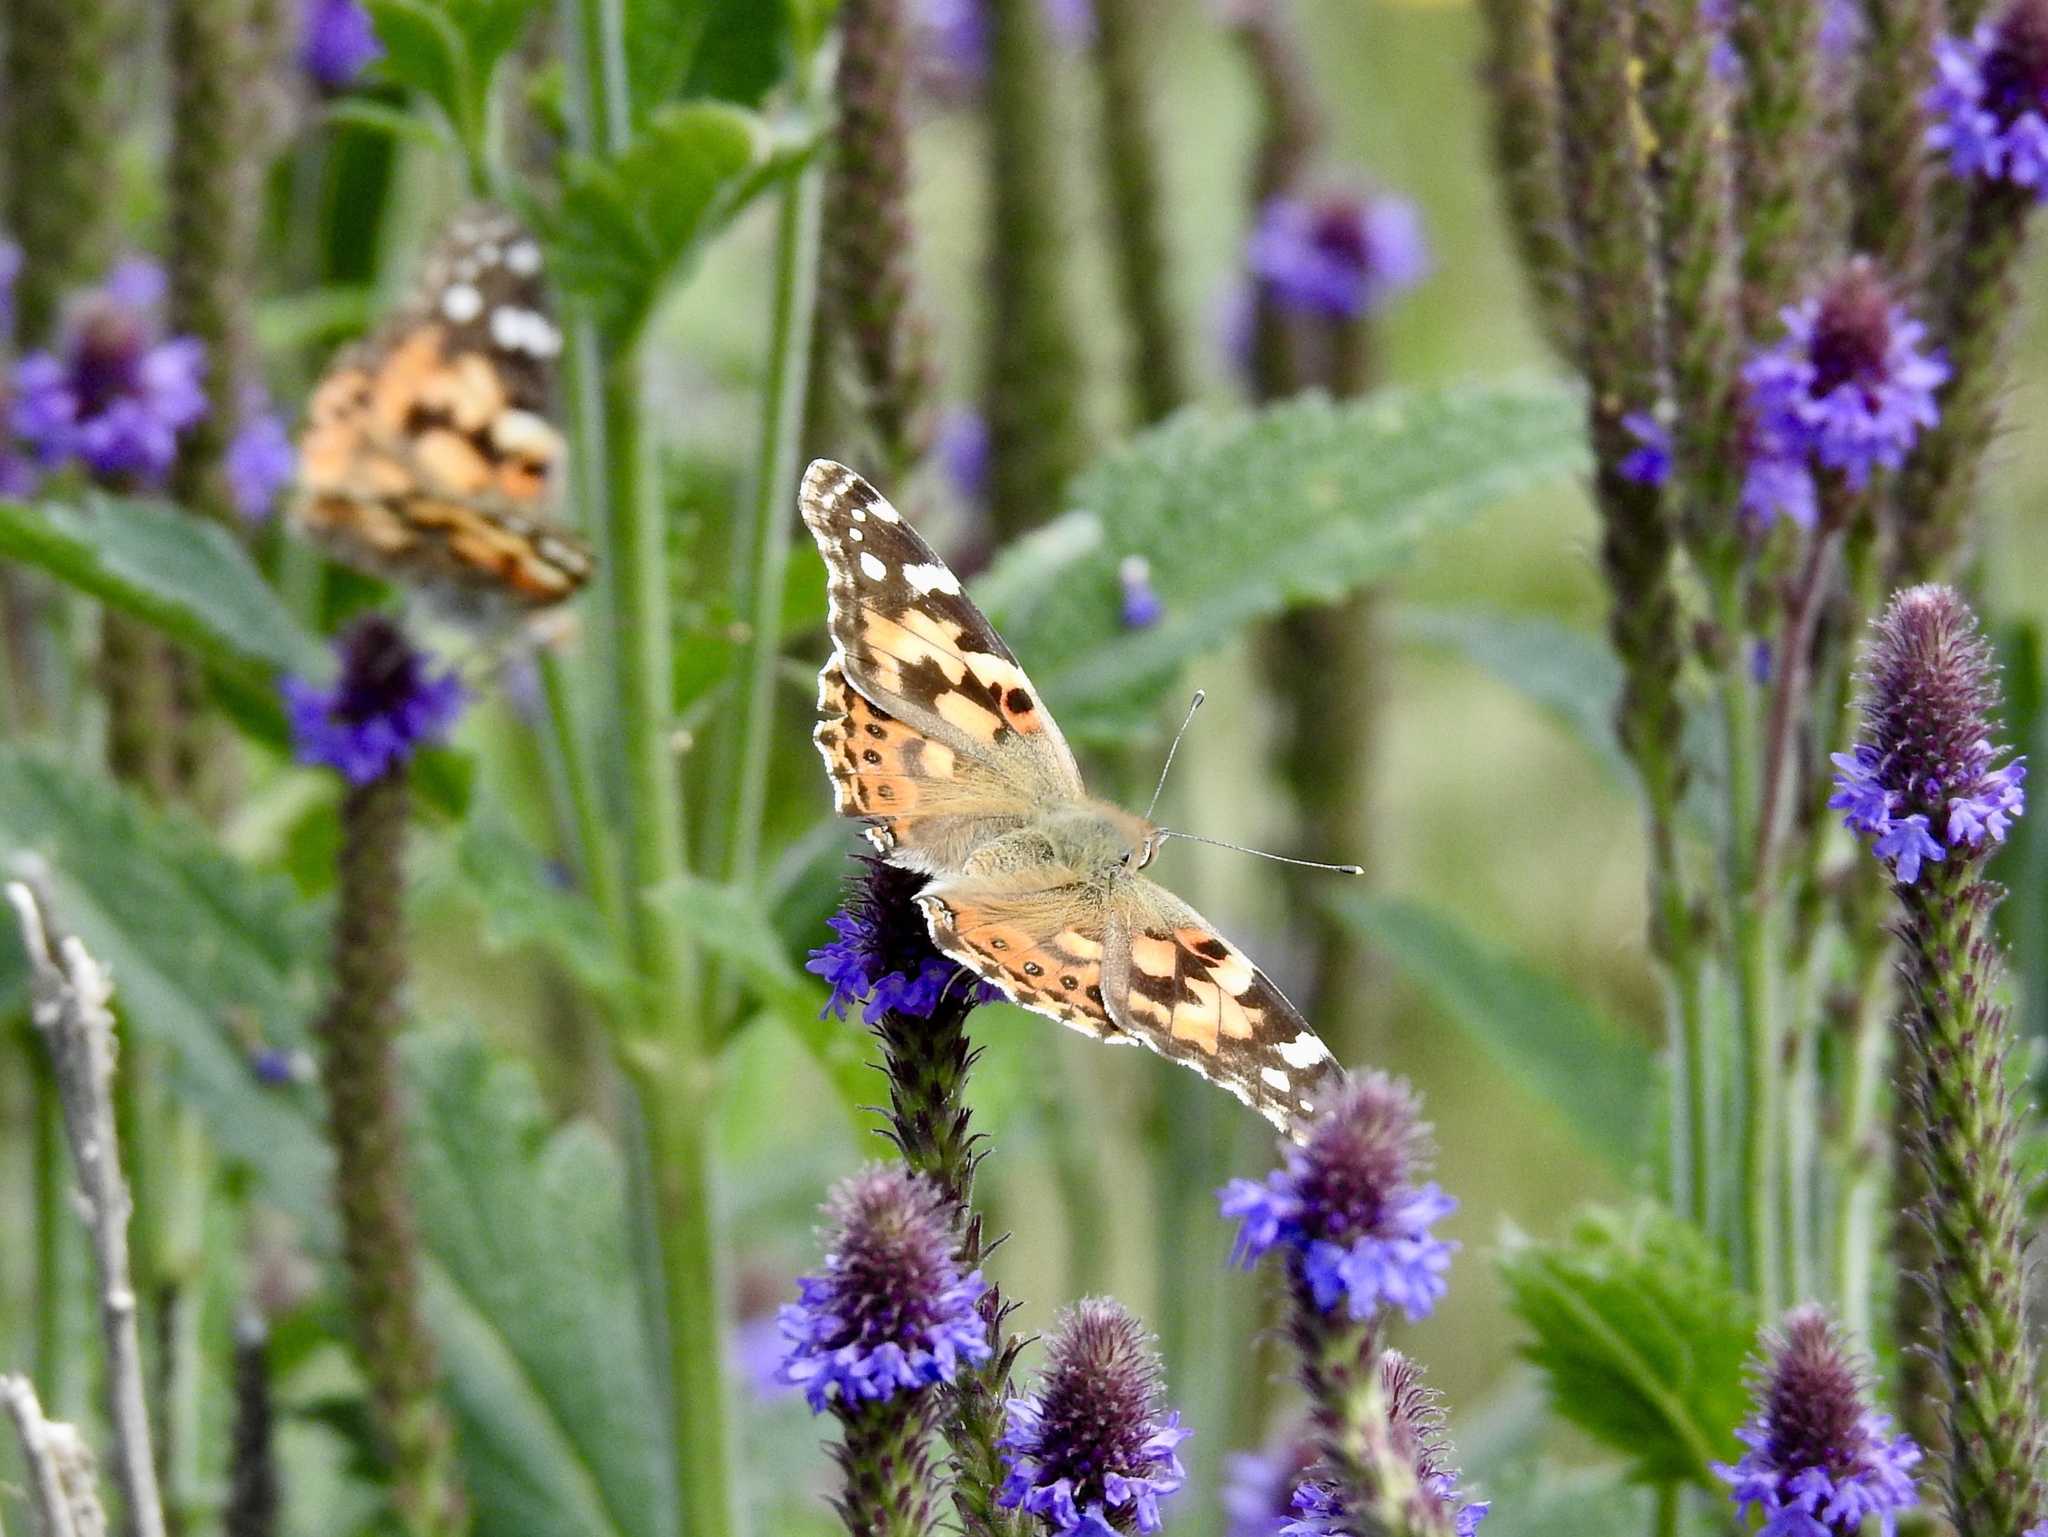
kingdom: Animalia
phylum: Arthropoda
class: Insecta
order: Lepidoptera
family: Nymphalidae
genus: Vanessa
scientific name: Vanessa cardui
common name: Painted lady
